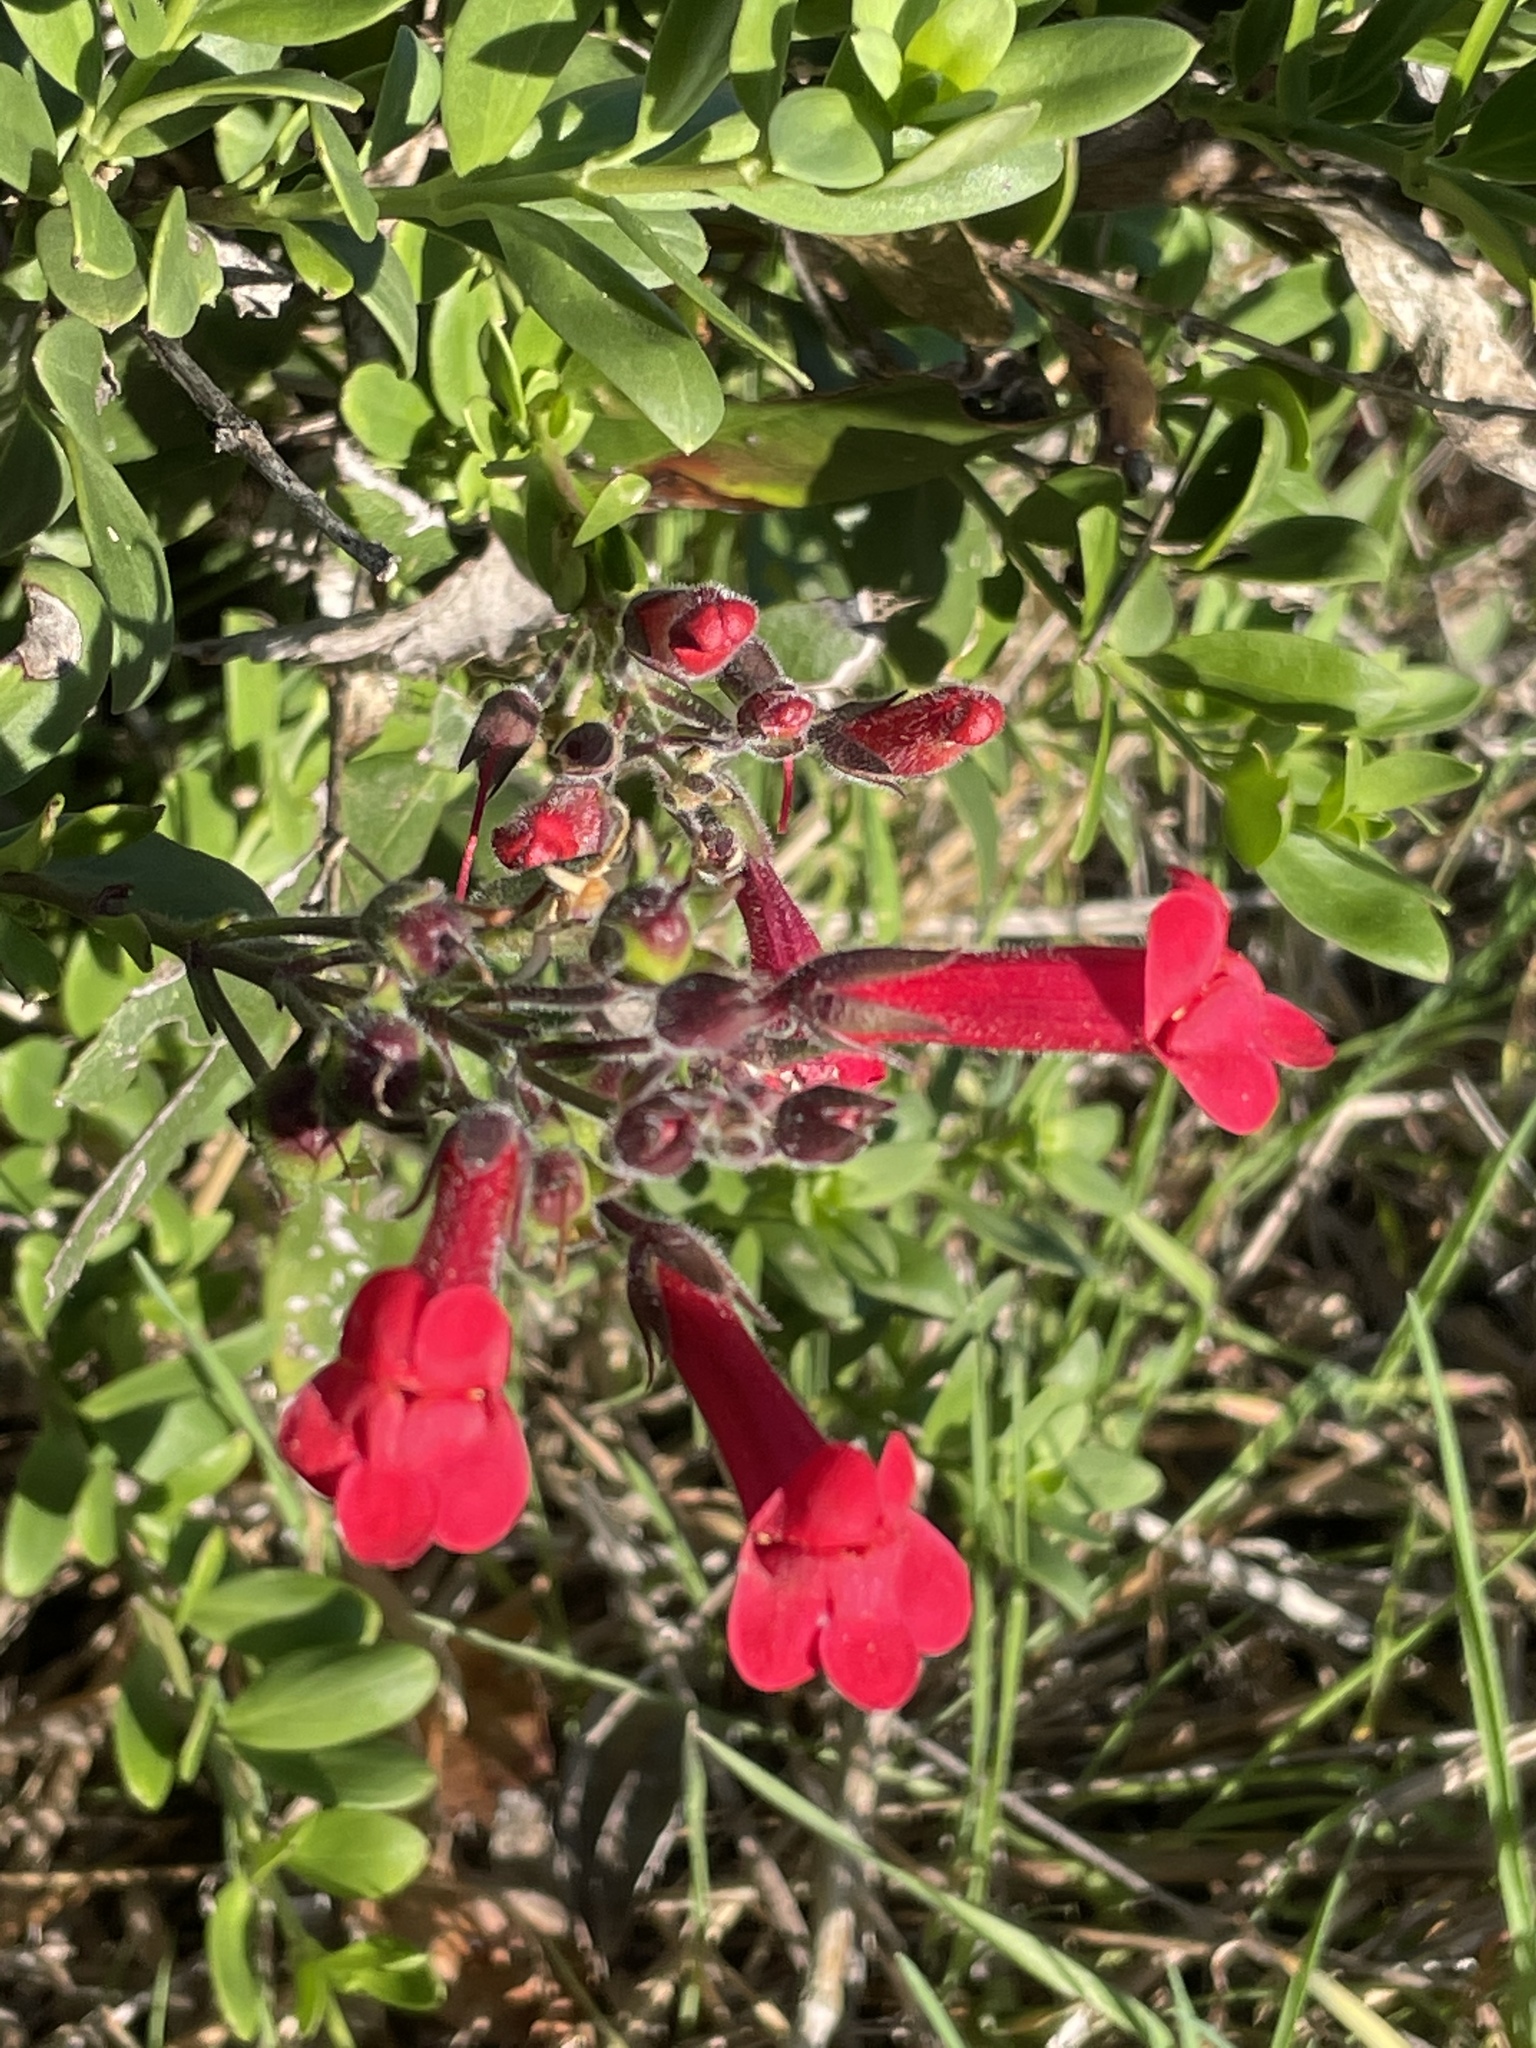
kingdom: Plantae
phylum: Tracheophyta
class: Magnoliopsida
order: Lamiales
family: Plantaginaceae
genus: Gambelia
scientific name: Gambelia speciosa
